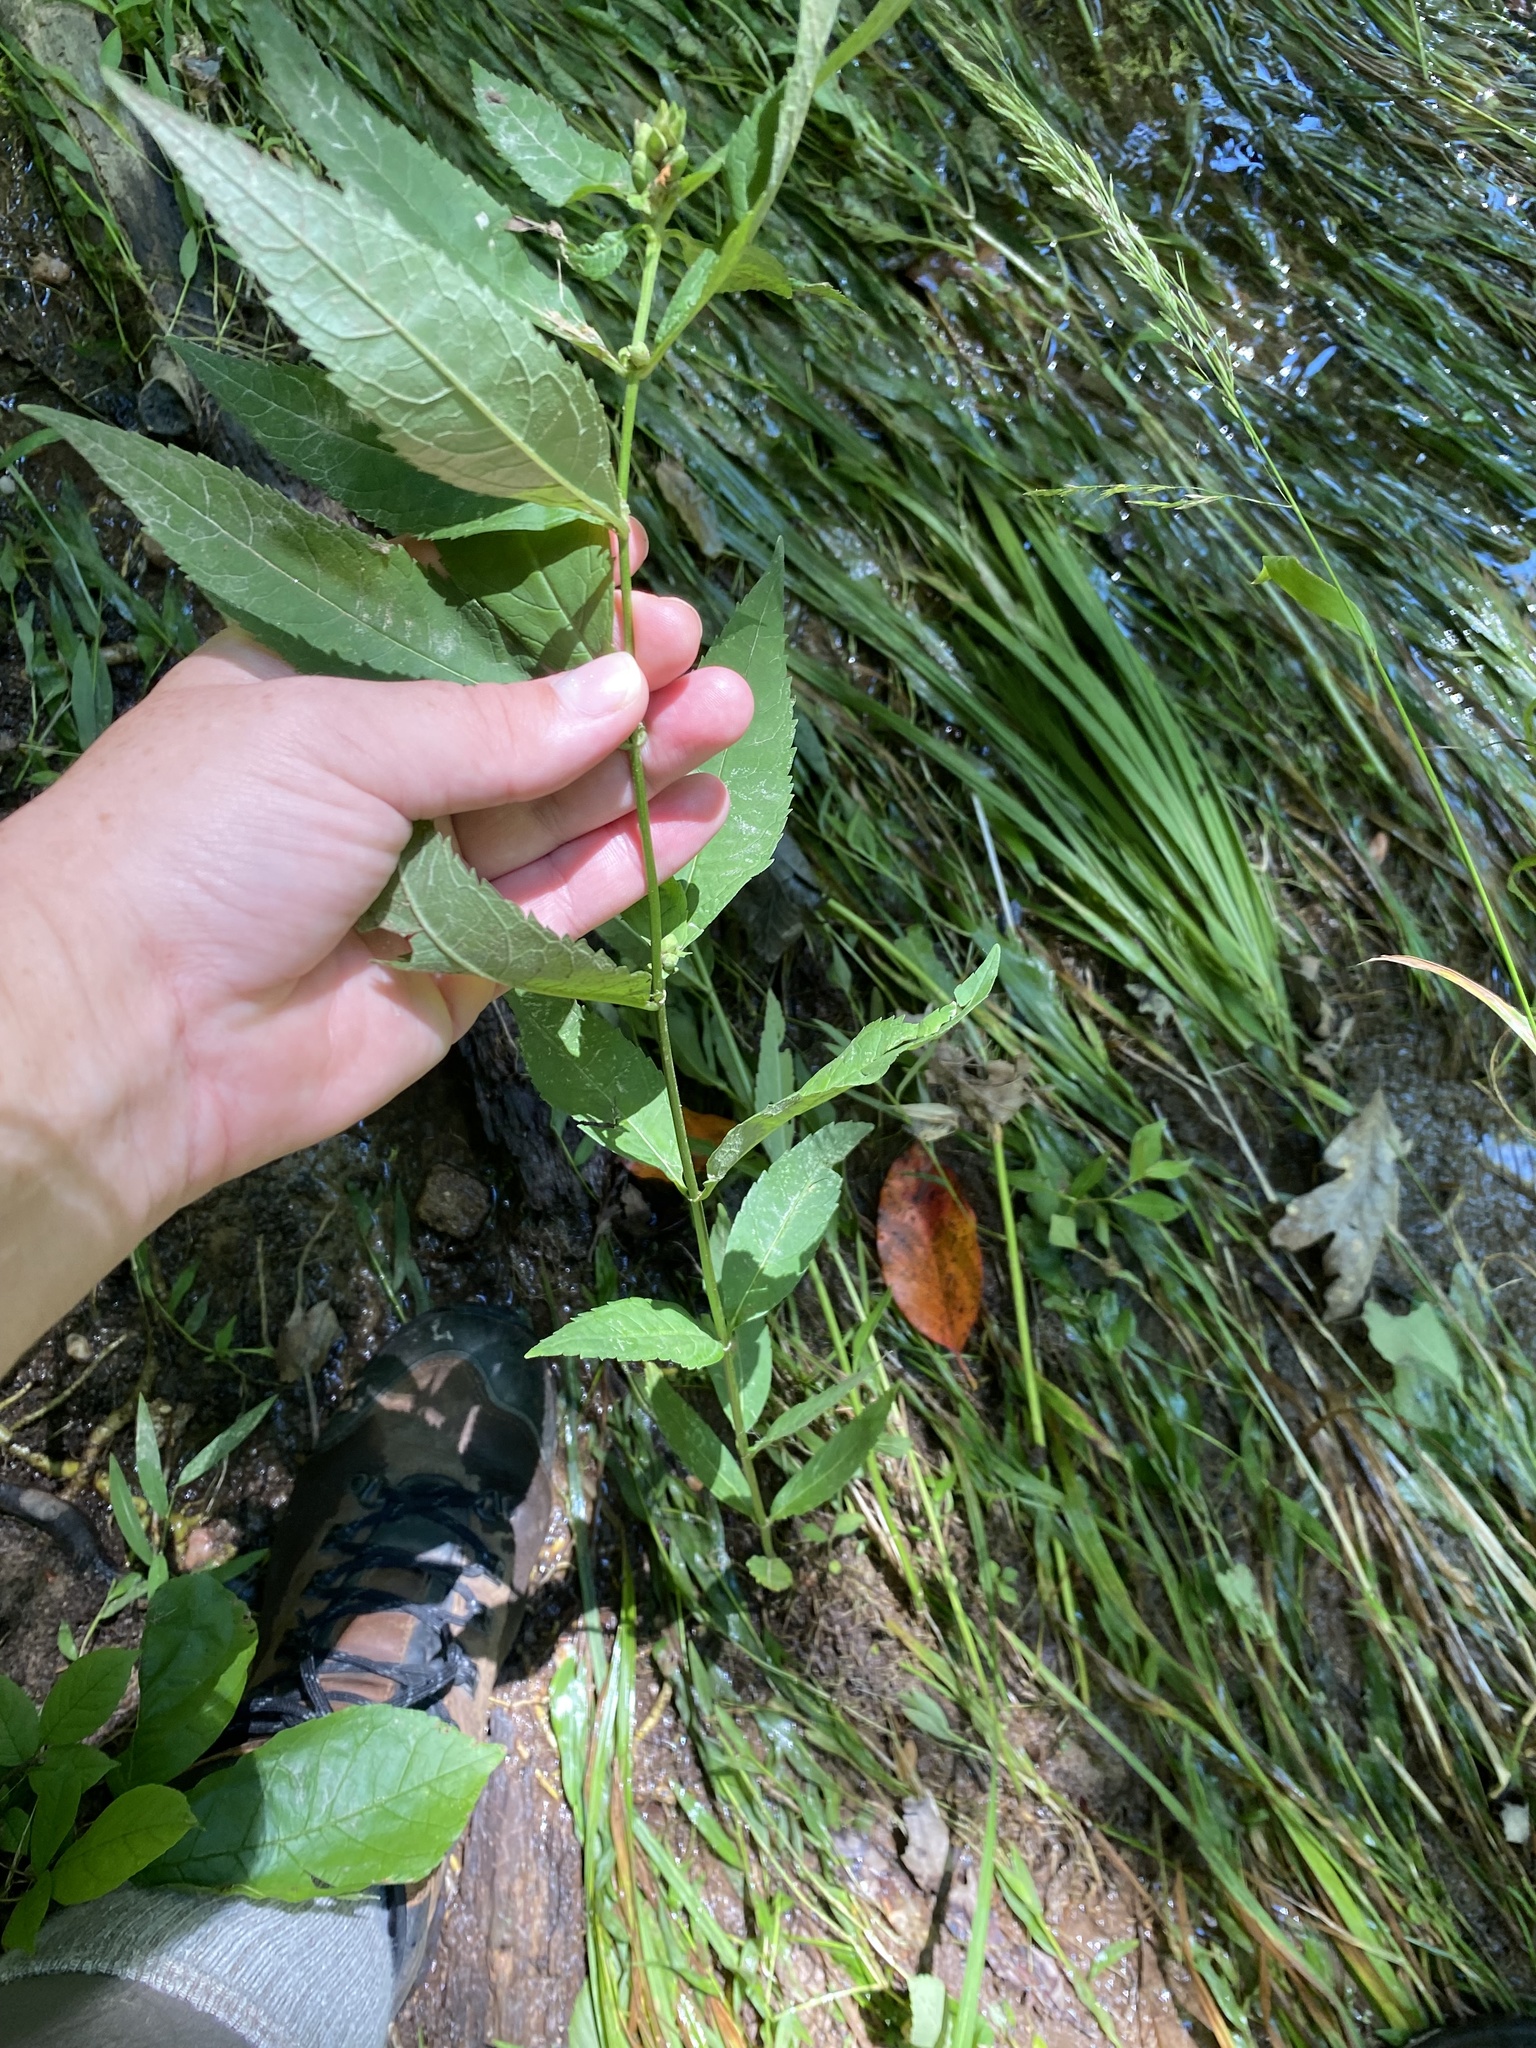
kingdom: Plantae
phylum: Tracheophyta
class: Magnoliopsida
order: Lamiales
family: Plantaginaceae
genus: Chelone
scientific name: Chelone glabra
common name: Snakehead
